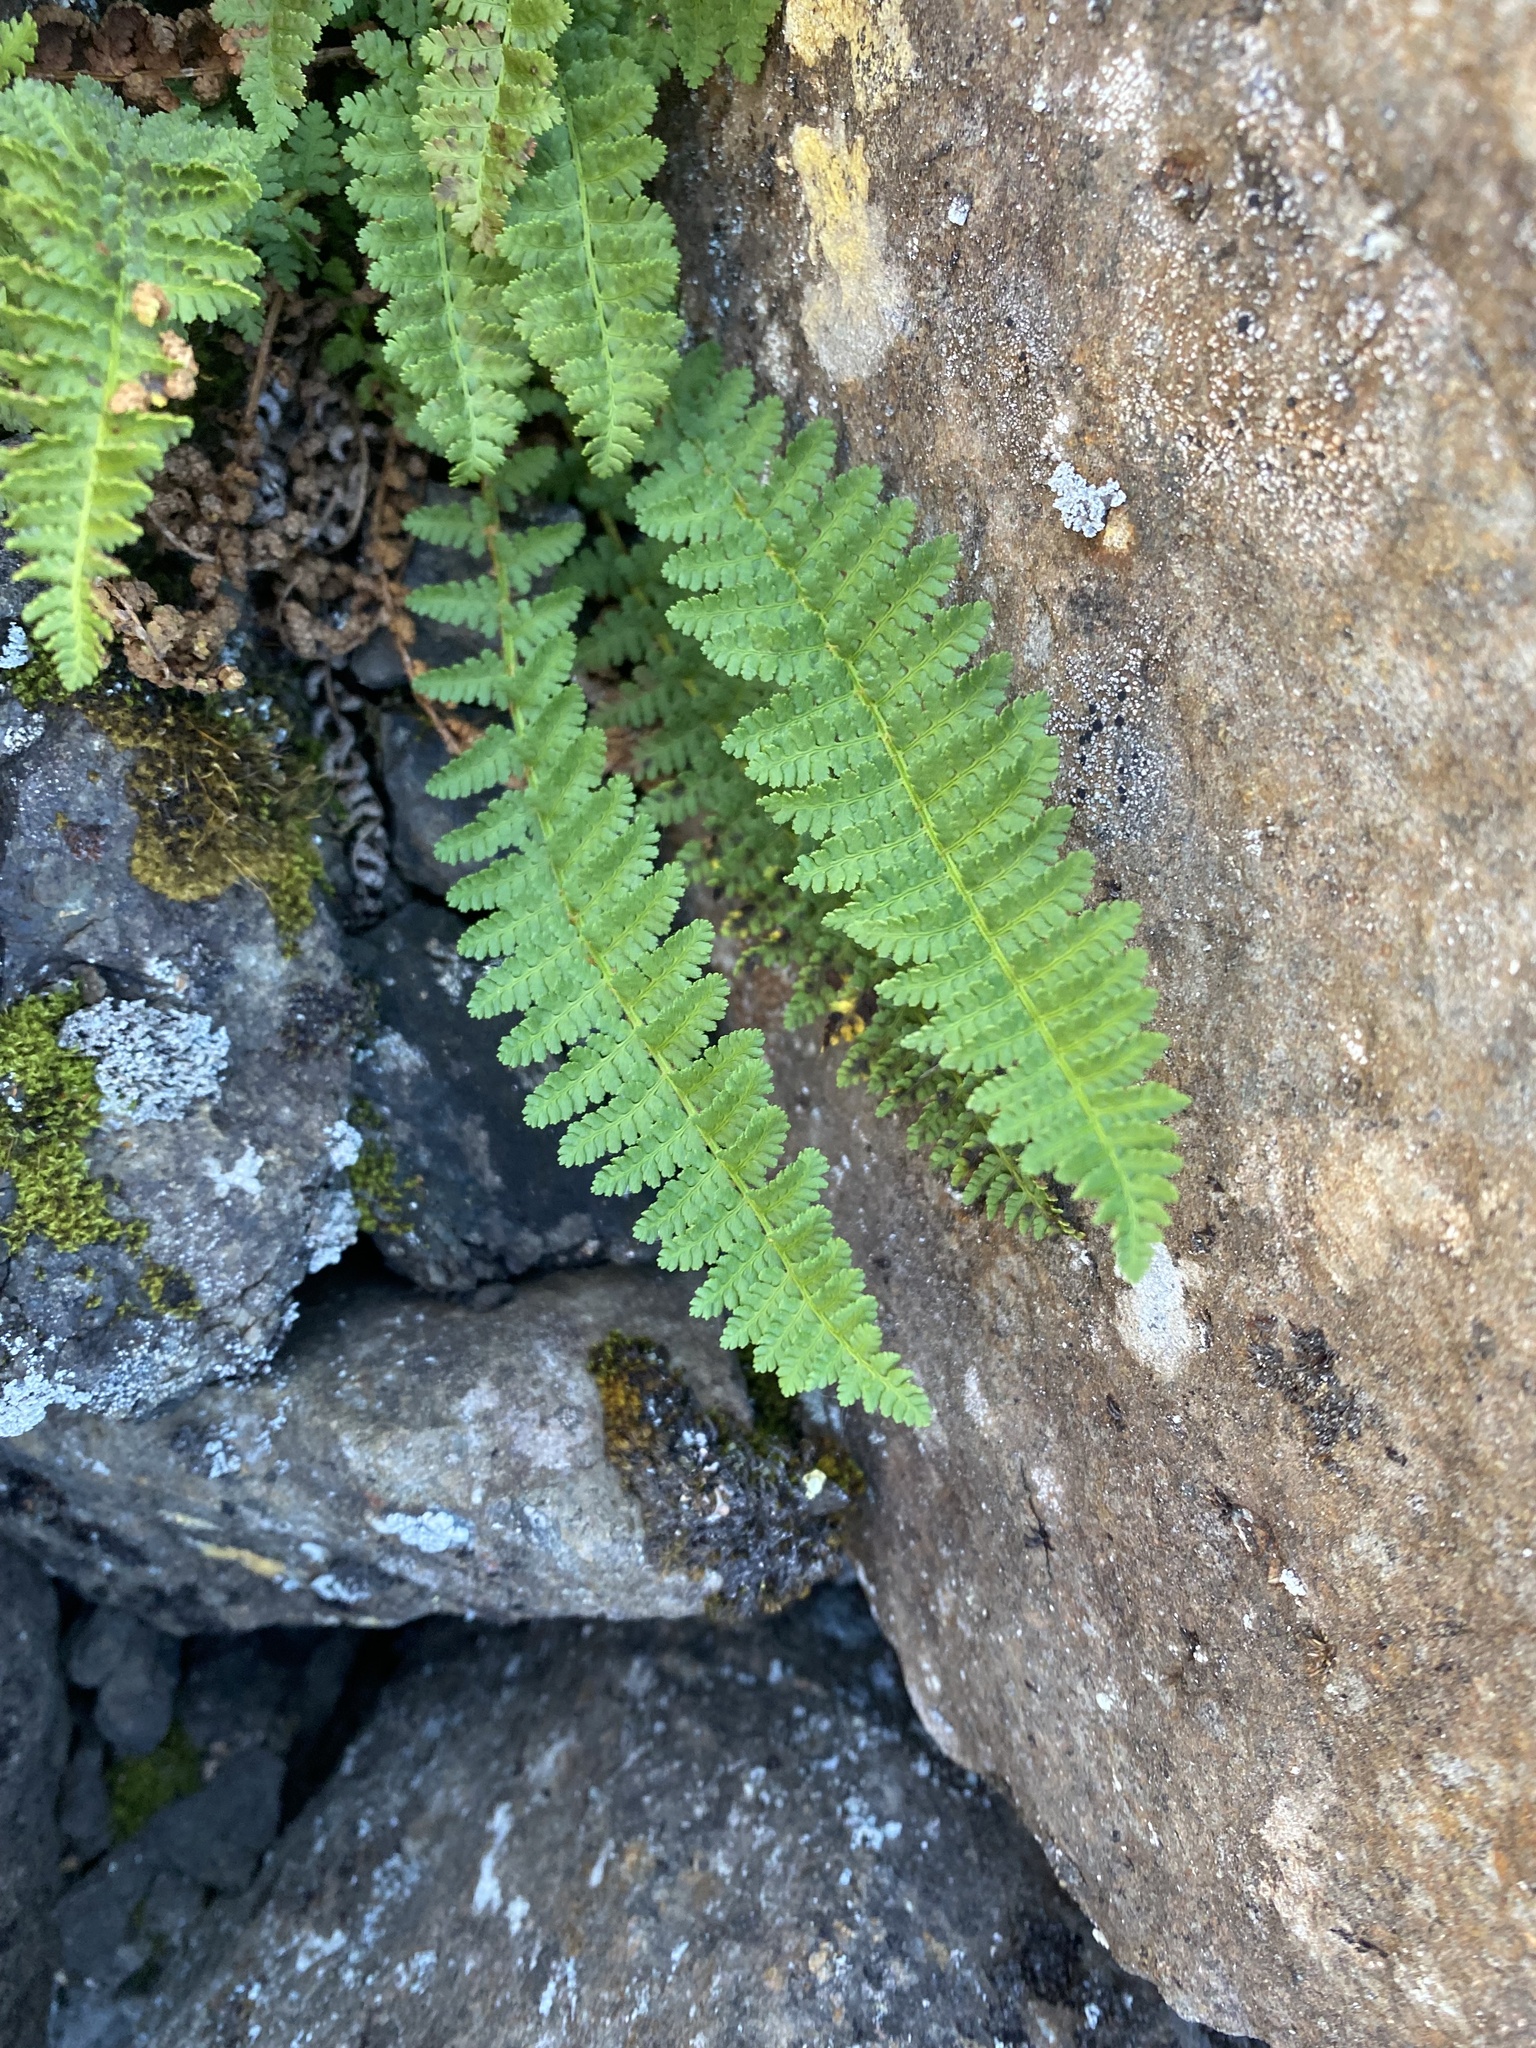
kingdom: Plantae
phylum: Tracheophyta
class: Polypodiopsida
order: Polypodiales
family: Dryopteridaceae
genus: Dryopteris
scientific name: Dryopteris fragrans
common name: Fragrant wood fern
